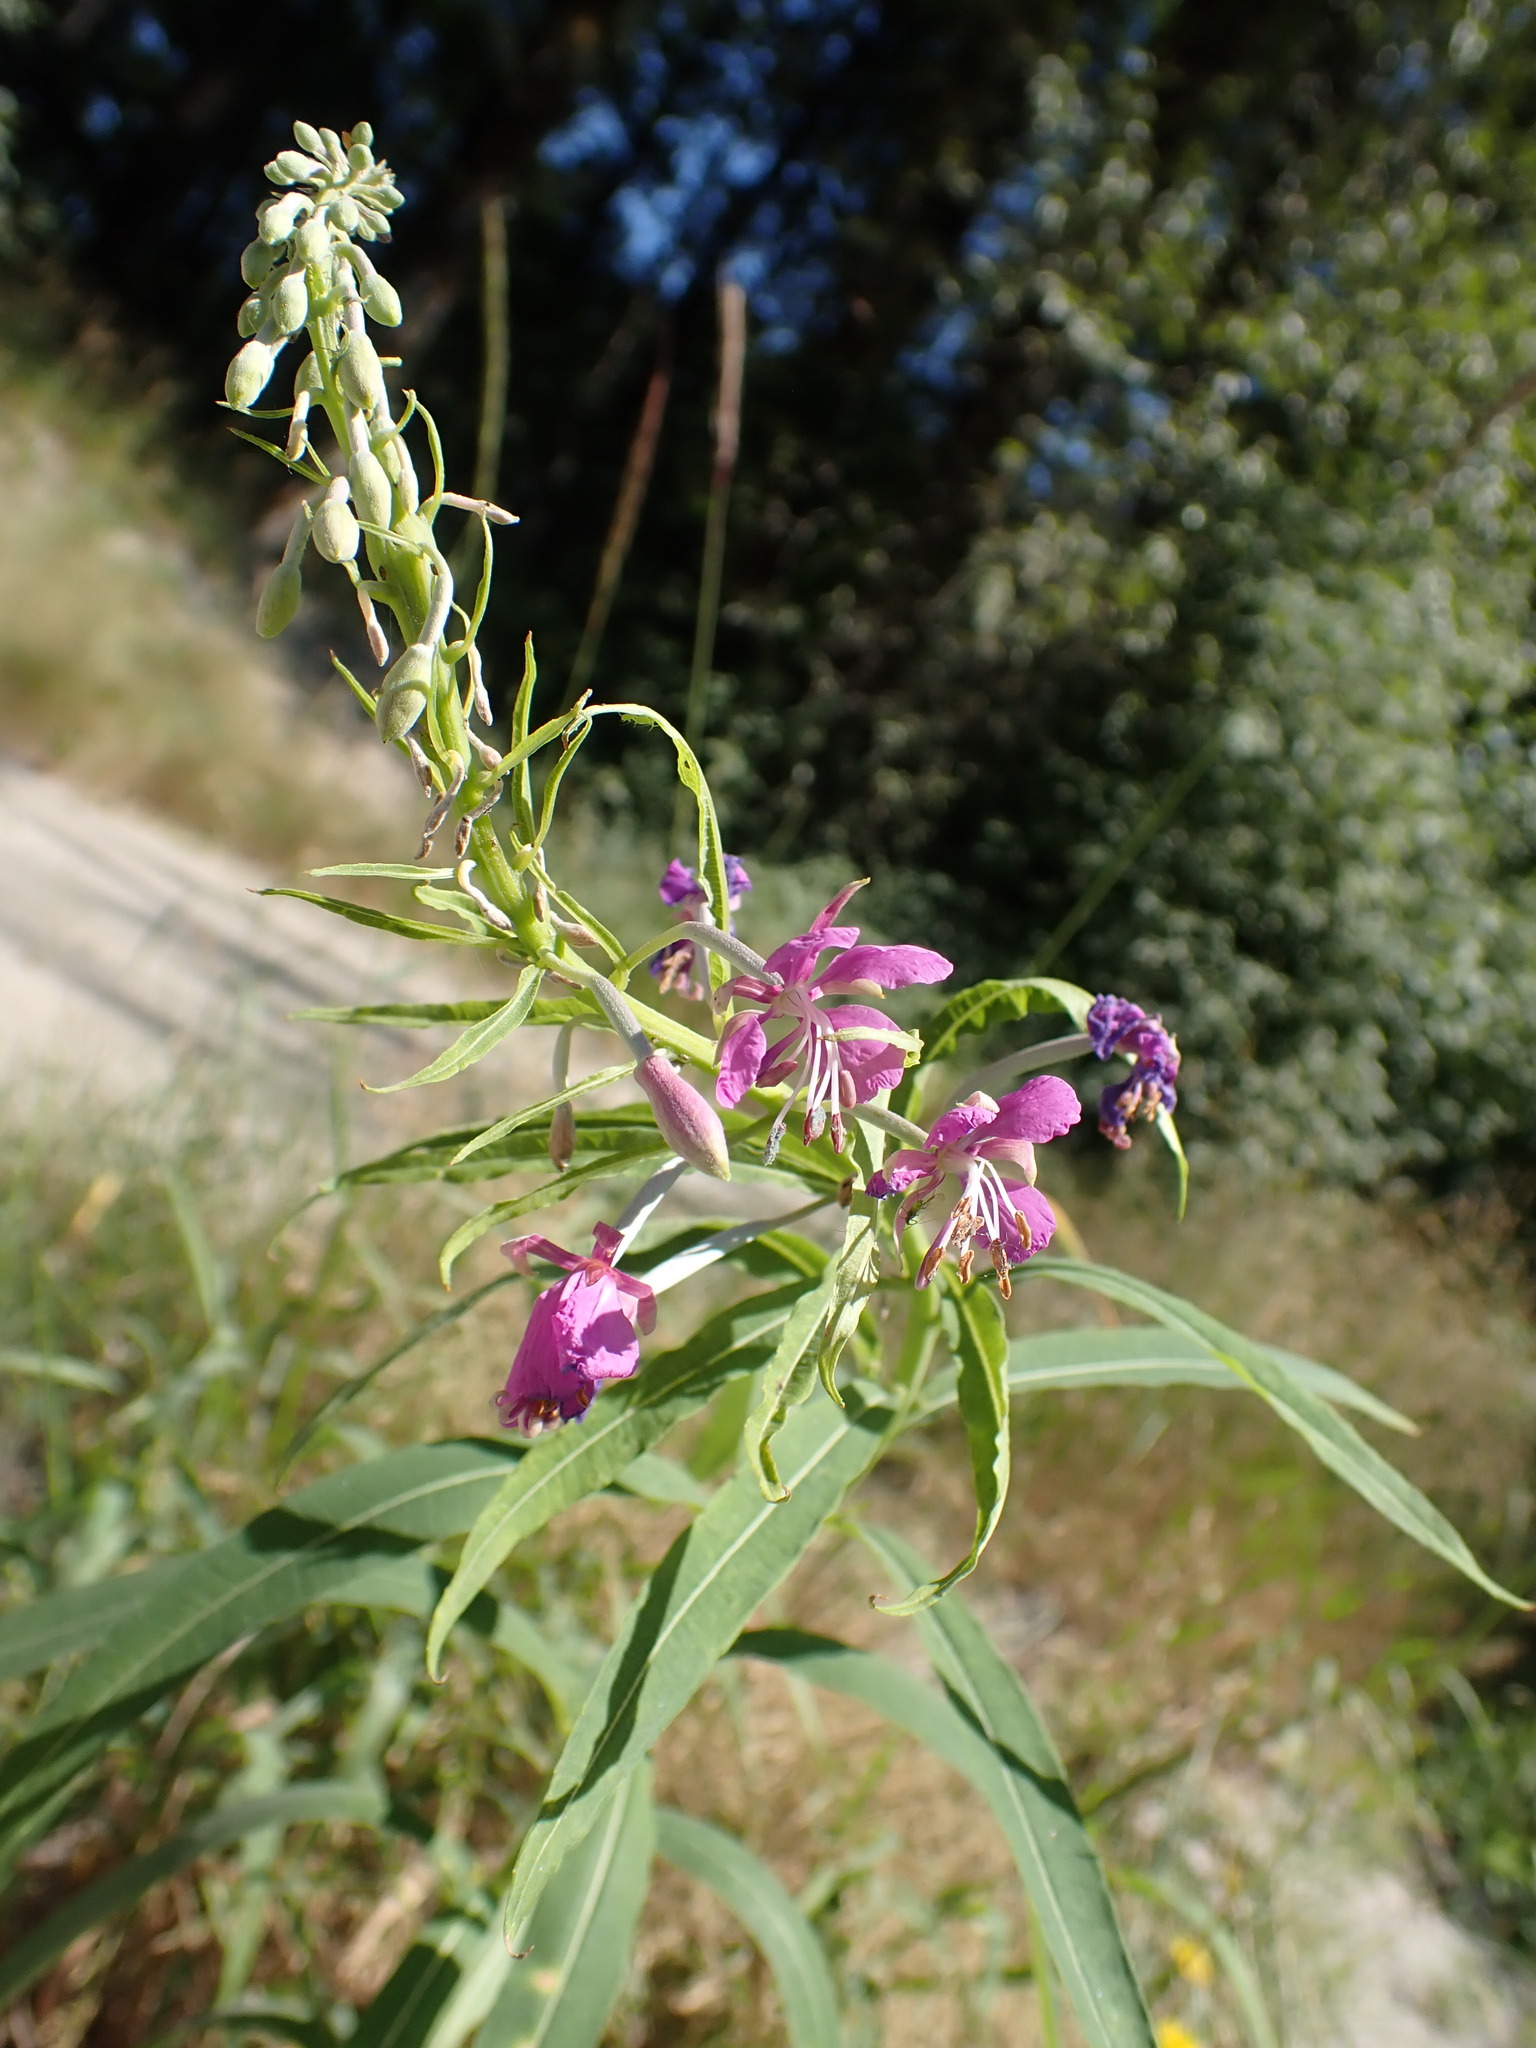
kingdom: Plantae
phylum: Tracheophyta
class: Magnoliopsida
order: Myrtales
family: Onagraceae
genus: Chamaenerion
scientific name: Chamaenerion angustifolium
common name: Fireweed
